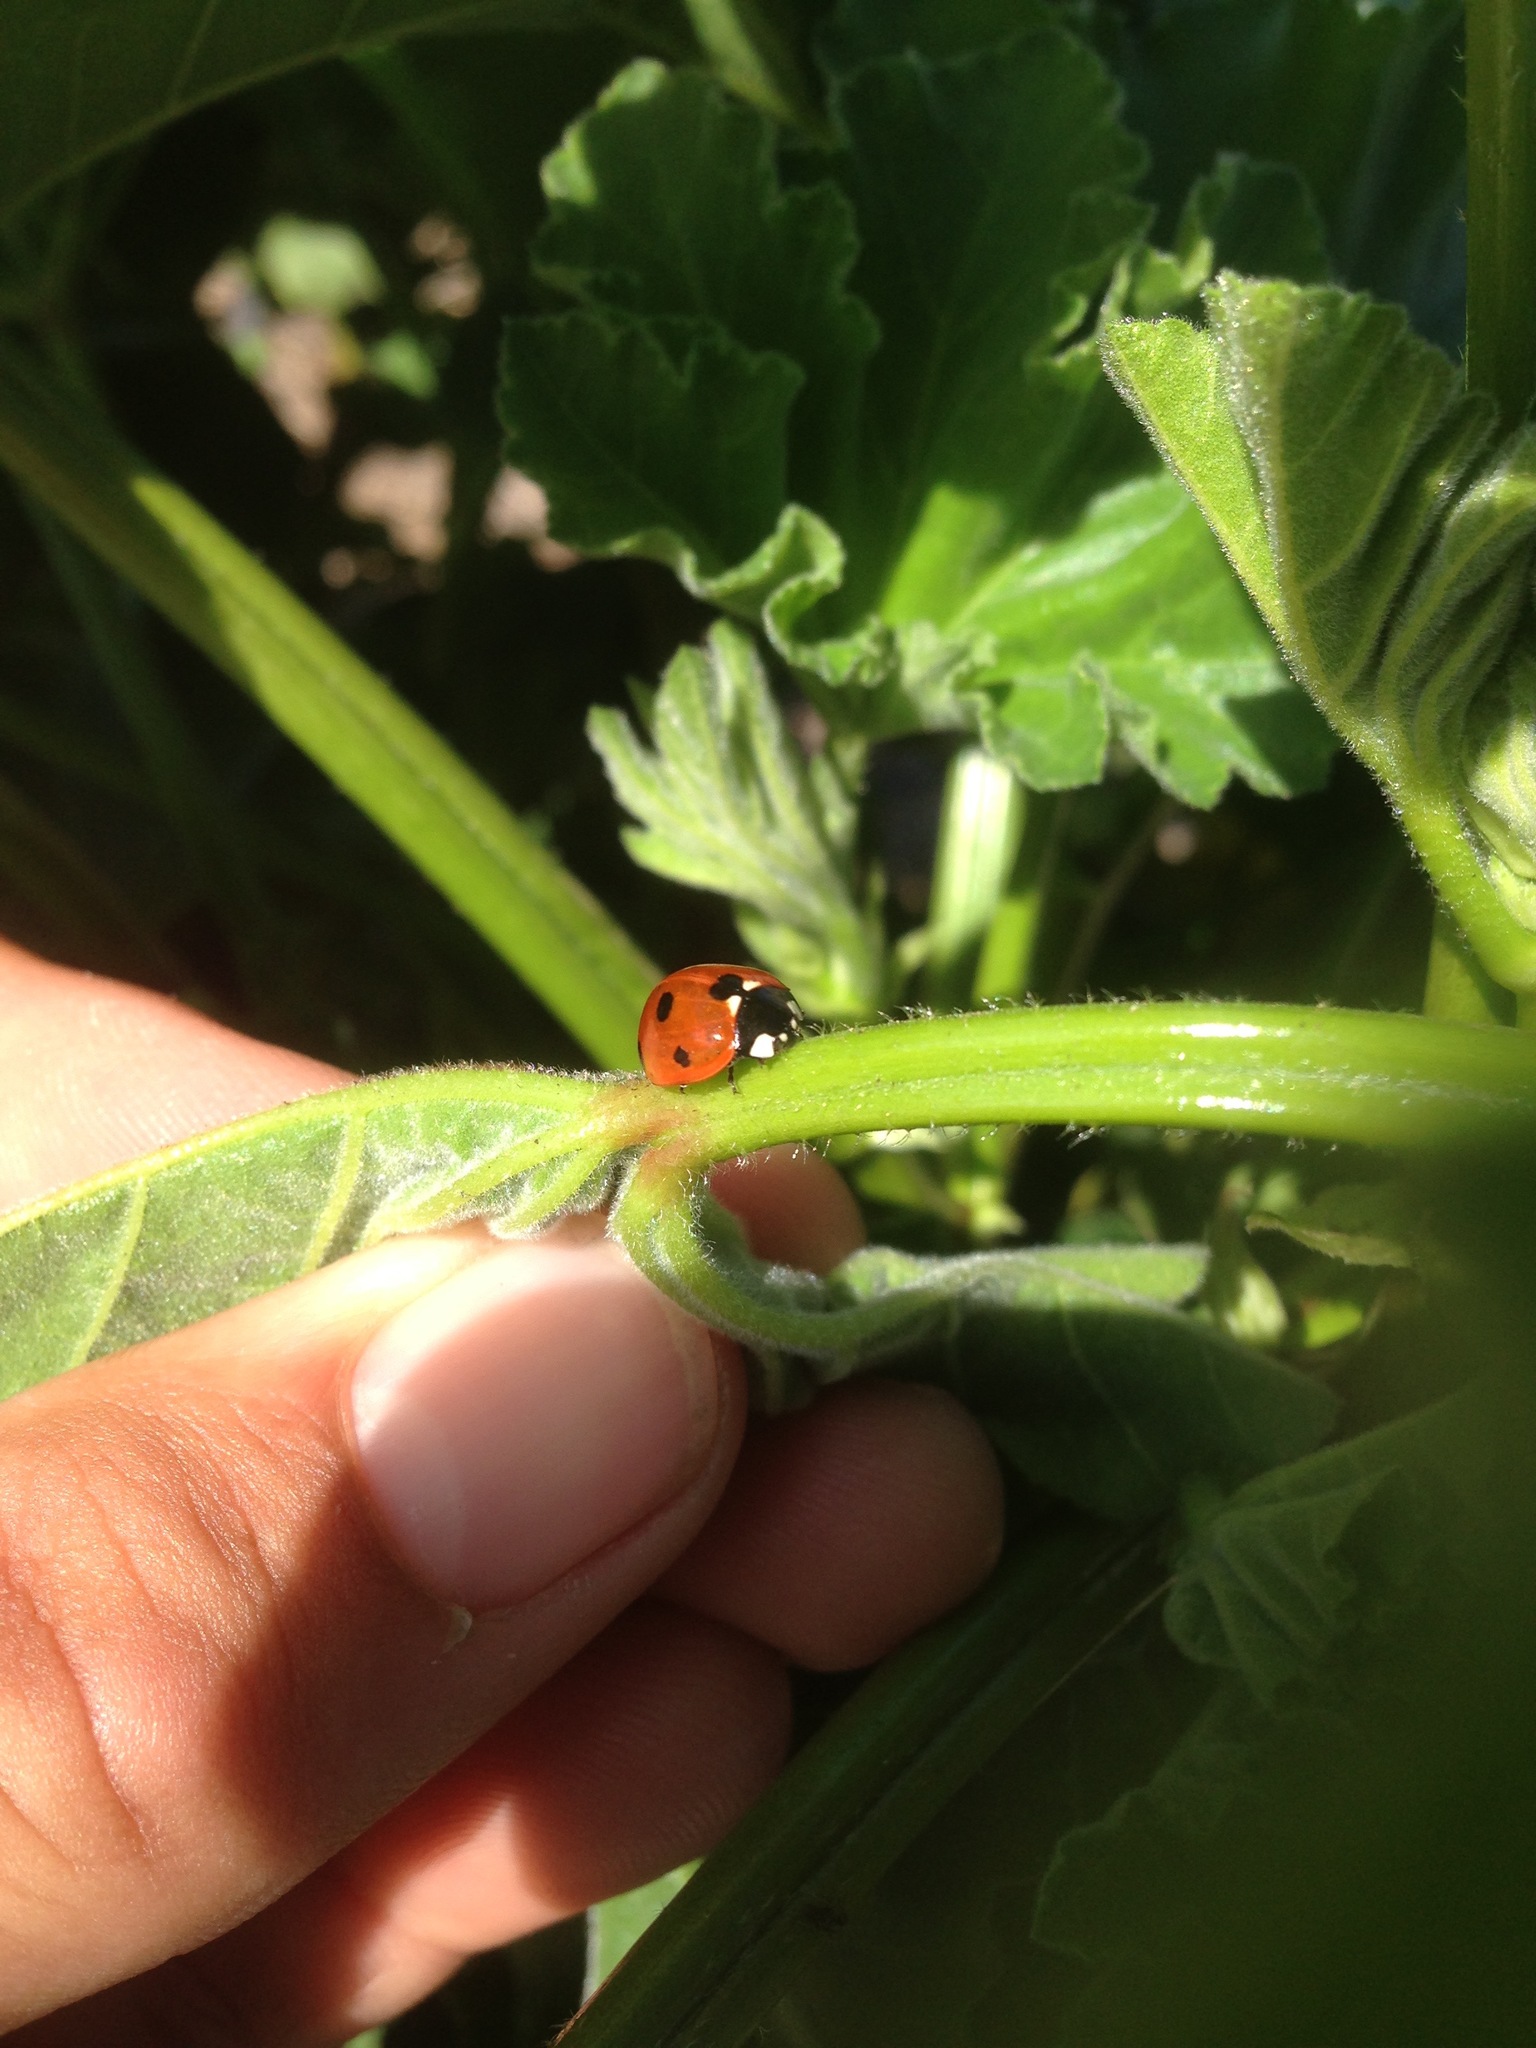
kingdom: Animalia
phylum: Arthropoda
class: Insecta
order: Coleoptera
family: Coccinellidae
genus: Coccinella
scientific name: Coccinella septempunctata
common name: Sevenspotted lady beetle
